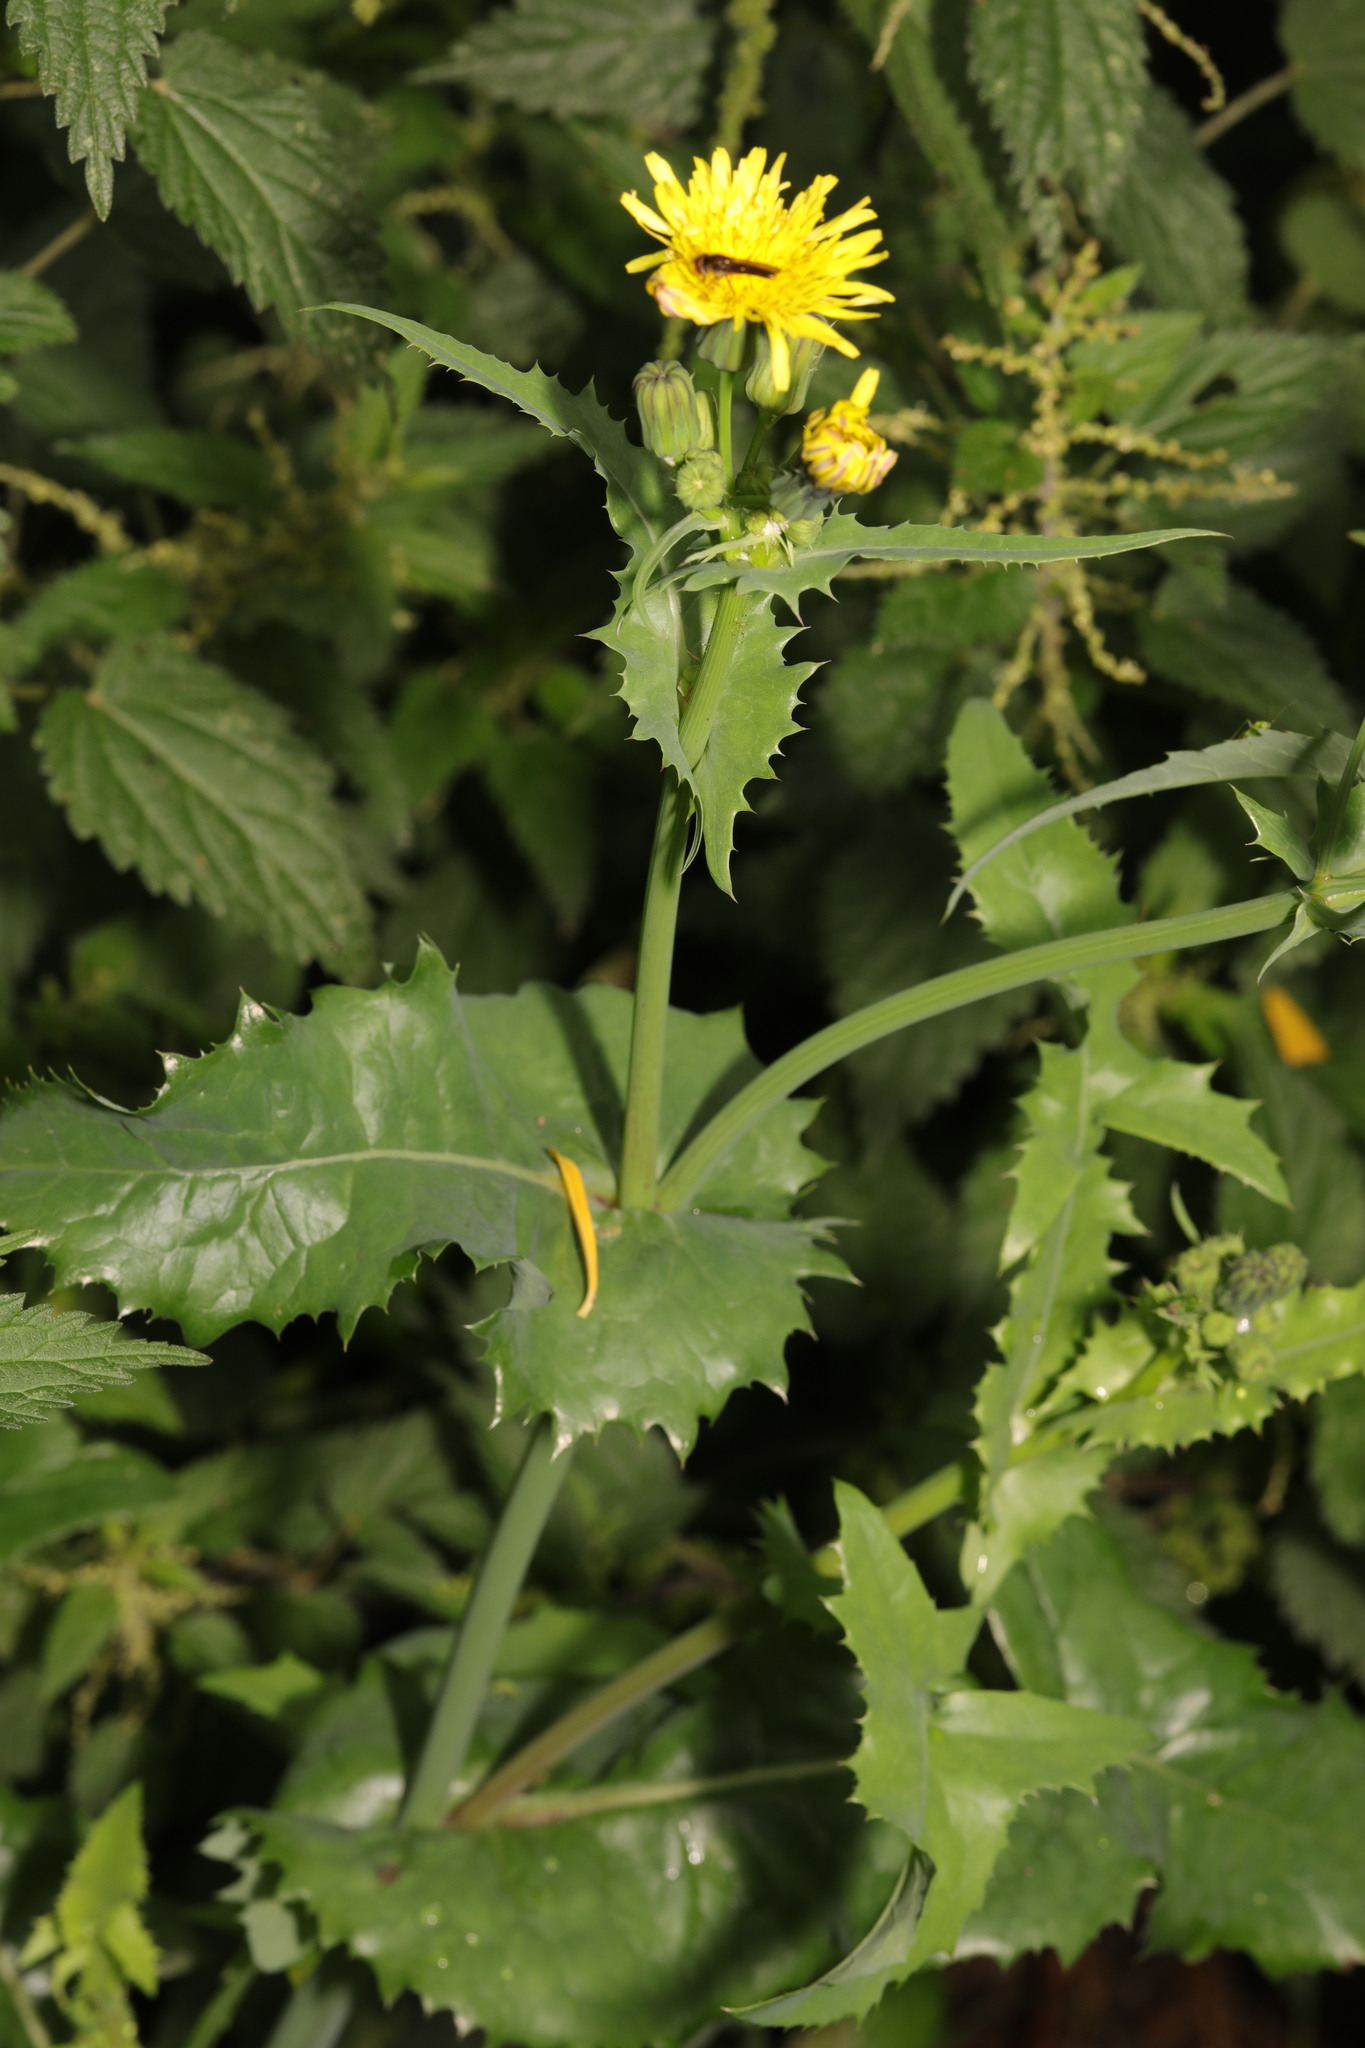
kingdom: Plantae
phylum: Tracheophyta
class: Magnoliopsida
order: Asterales
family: Asteraceae
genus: Sonchus
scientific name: Sonchus oleraceus
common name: Common sowthistle
